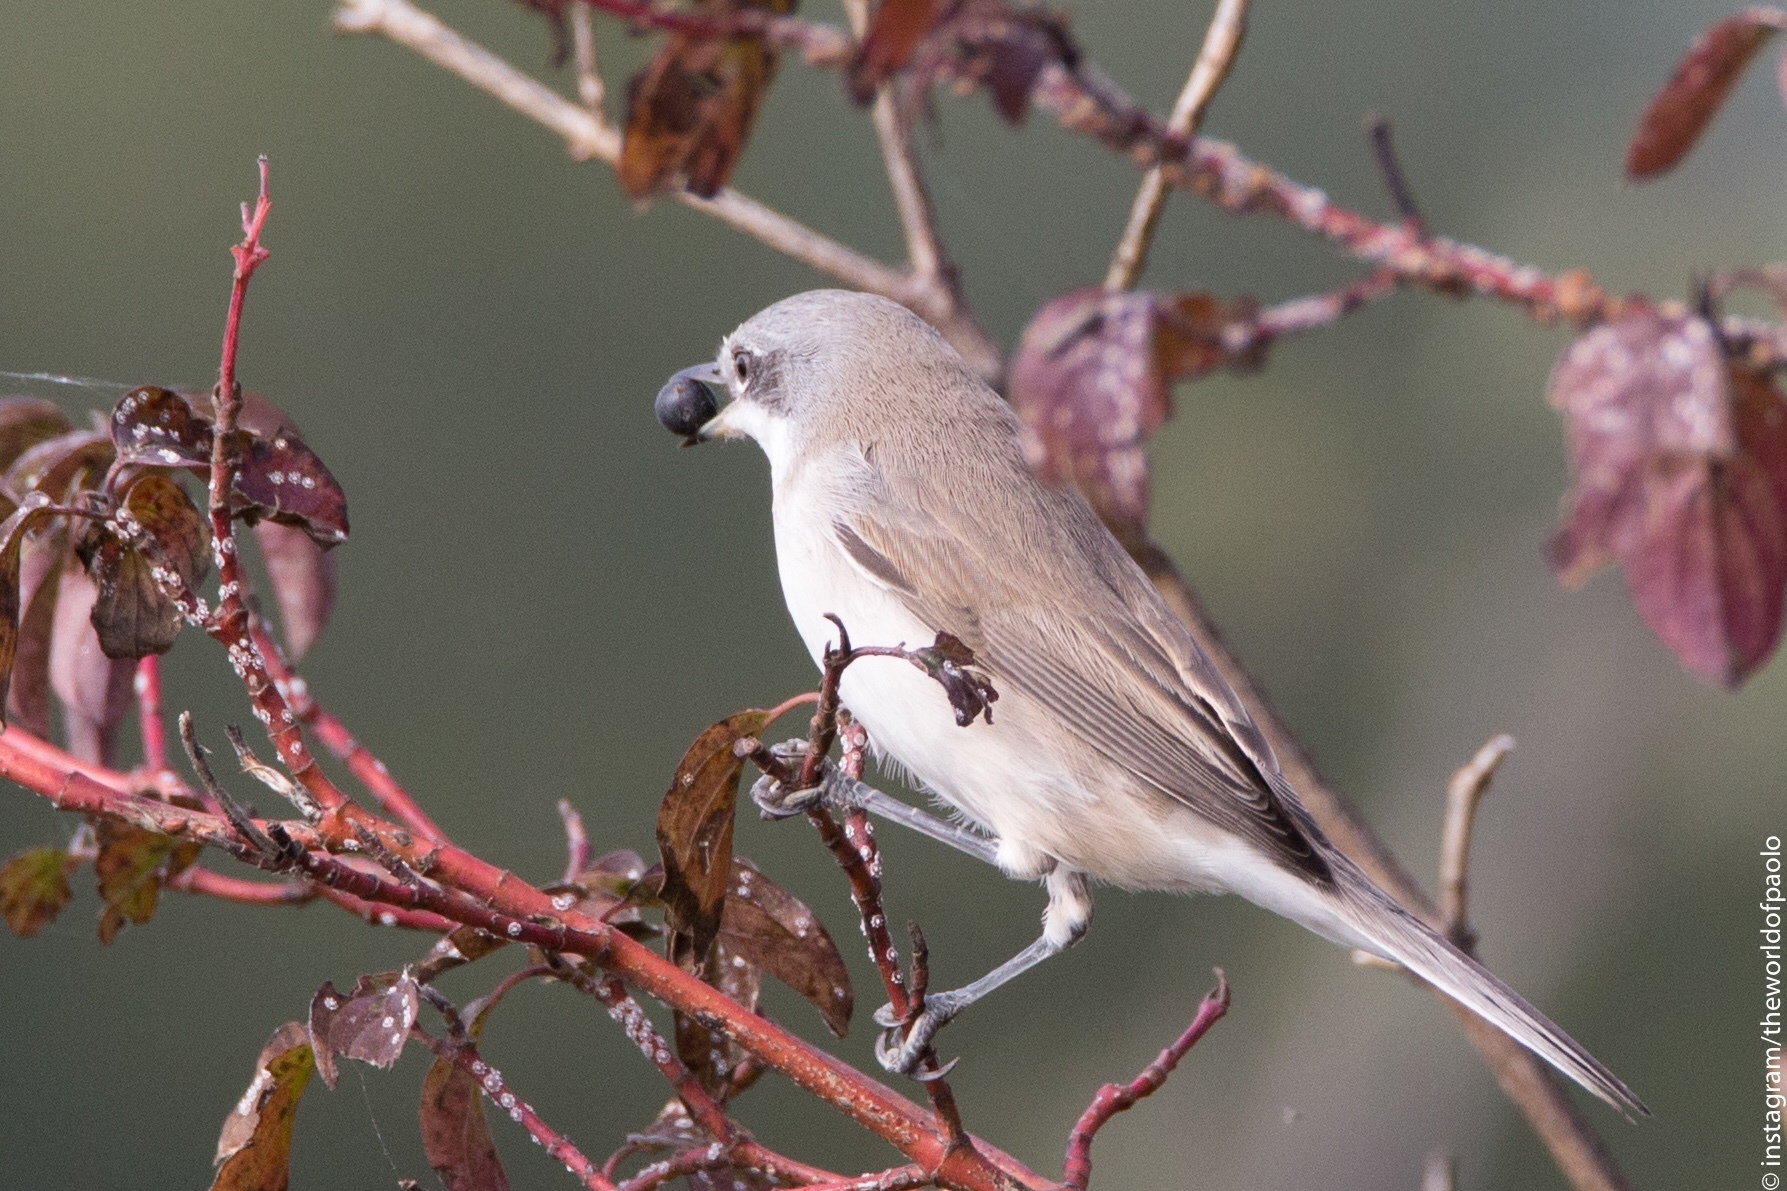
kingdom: Animalia
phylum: Chordata
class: Aves
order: Passeriformes
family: Sylviidae
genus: Sylvia
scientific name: Sylvia curruca
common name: Lesser whitethroat
